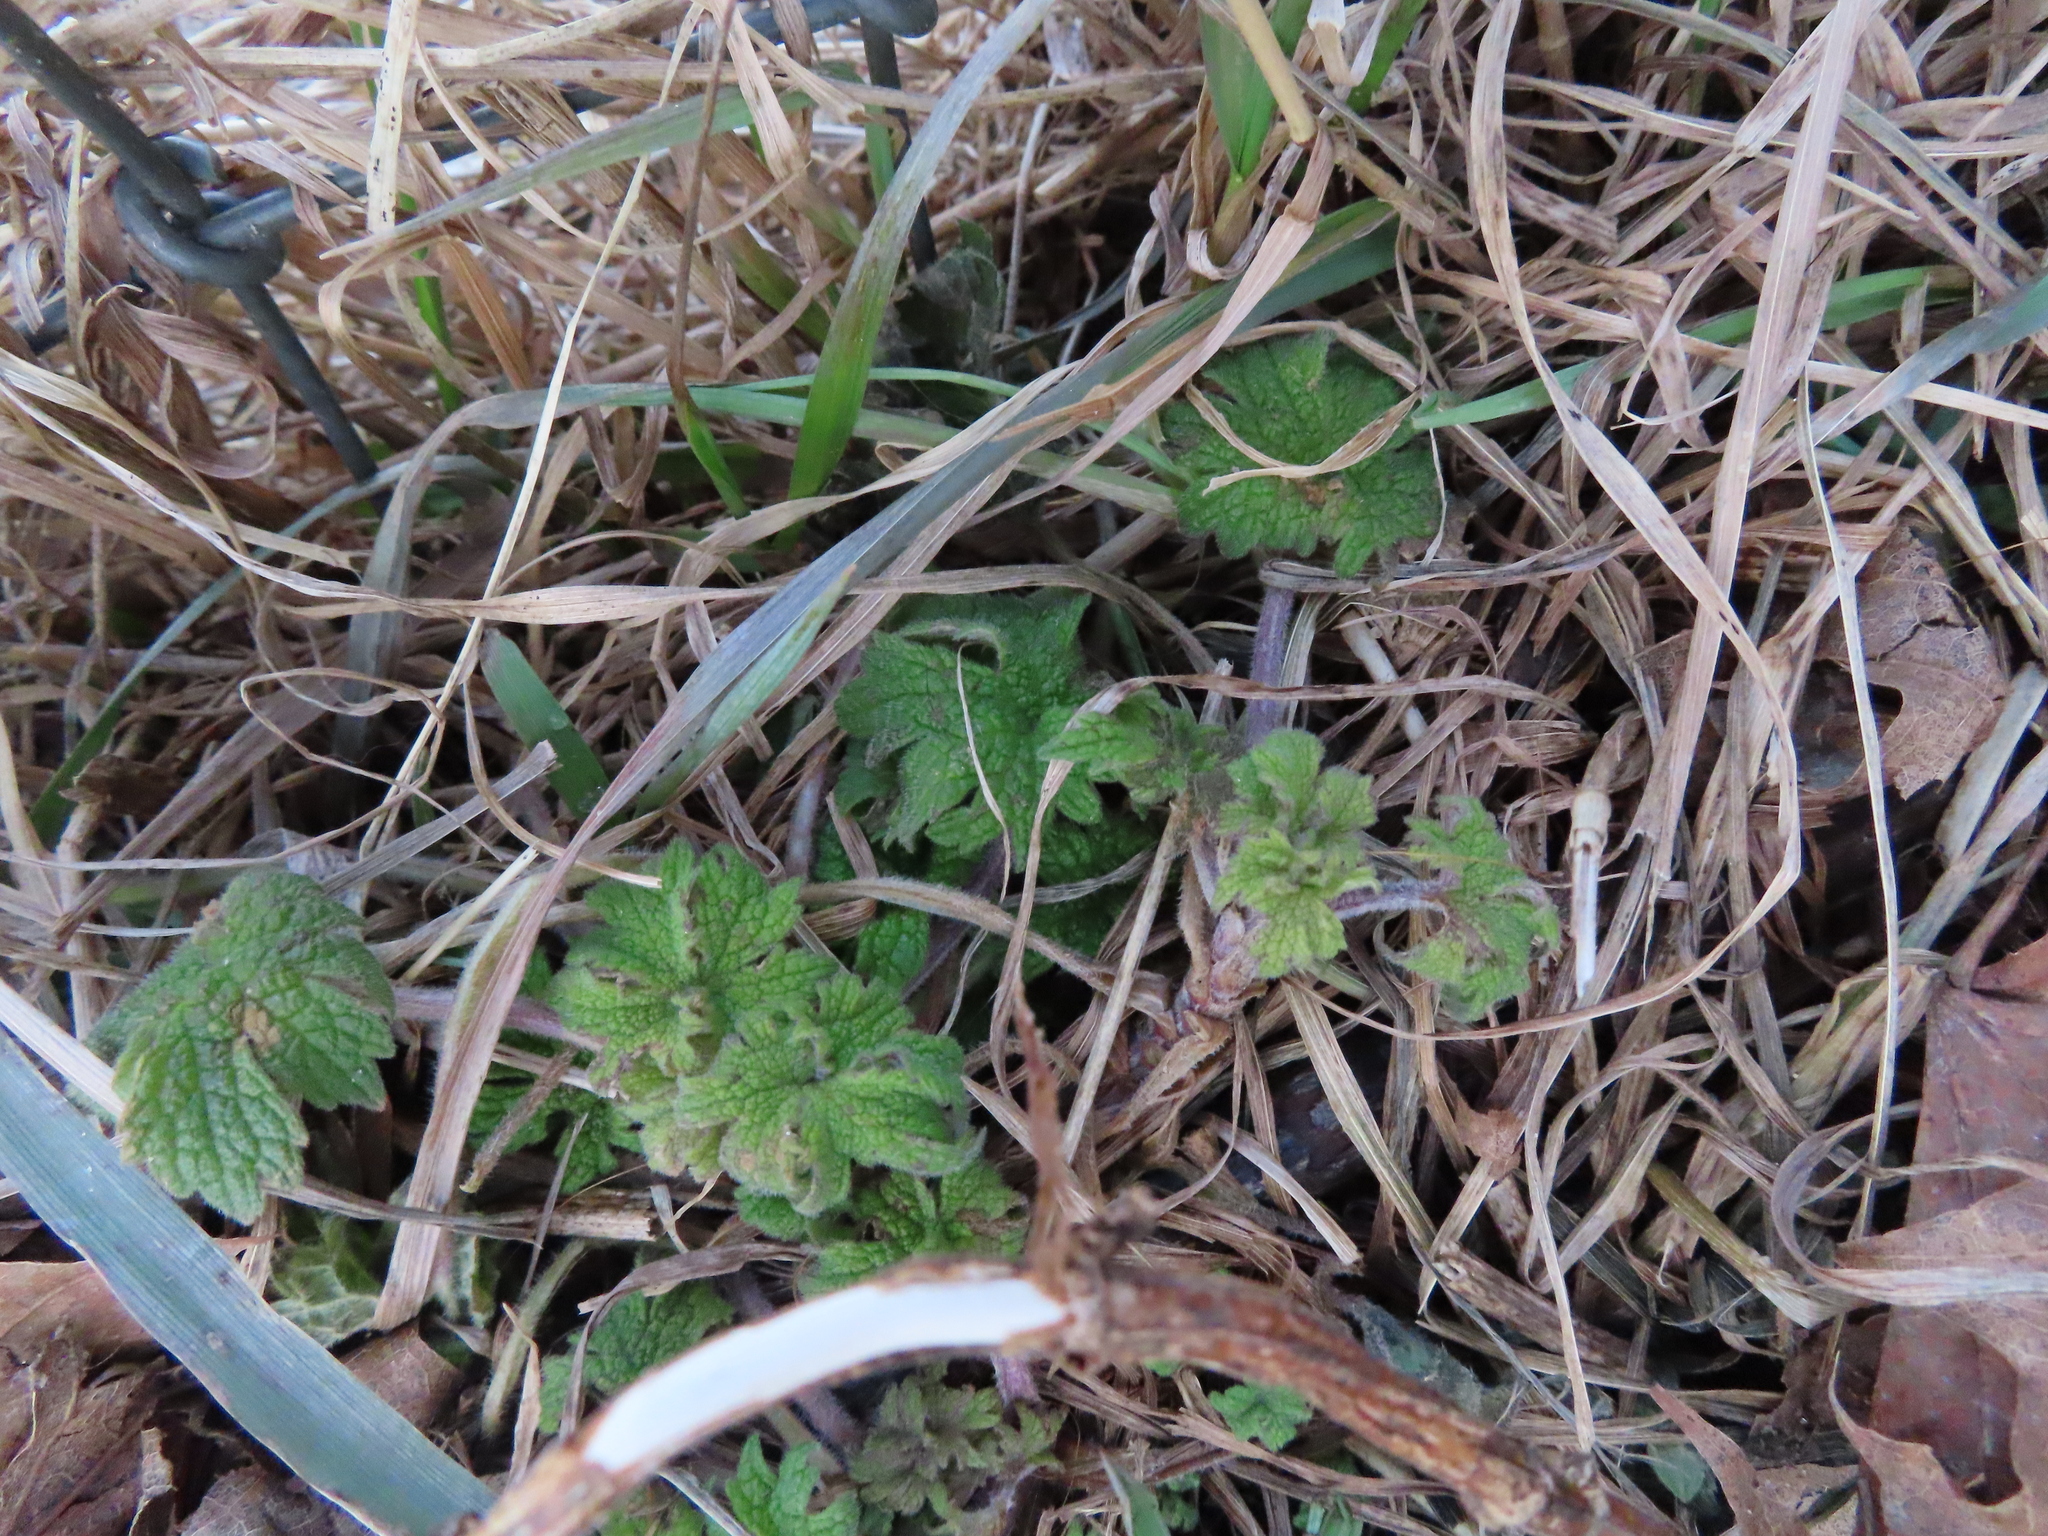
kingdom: Plantae
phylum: Tracheophyta
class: Magnoliopsida
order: Lamiales
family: Lamiaceae
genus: Leonurus
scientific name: Leonurus cardiaca
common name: Motherwort
